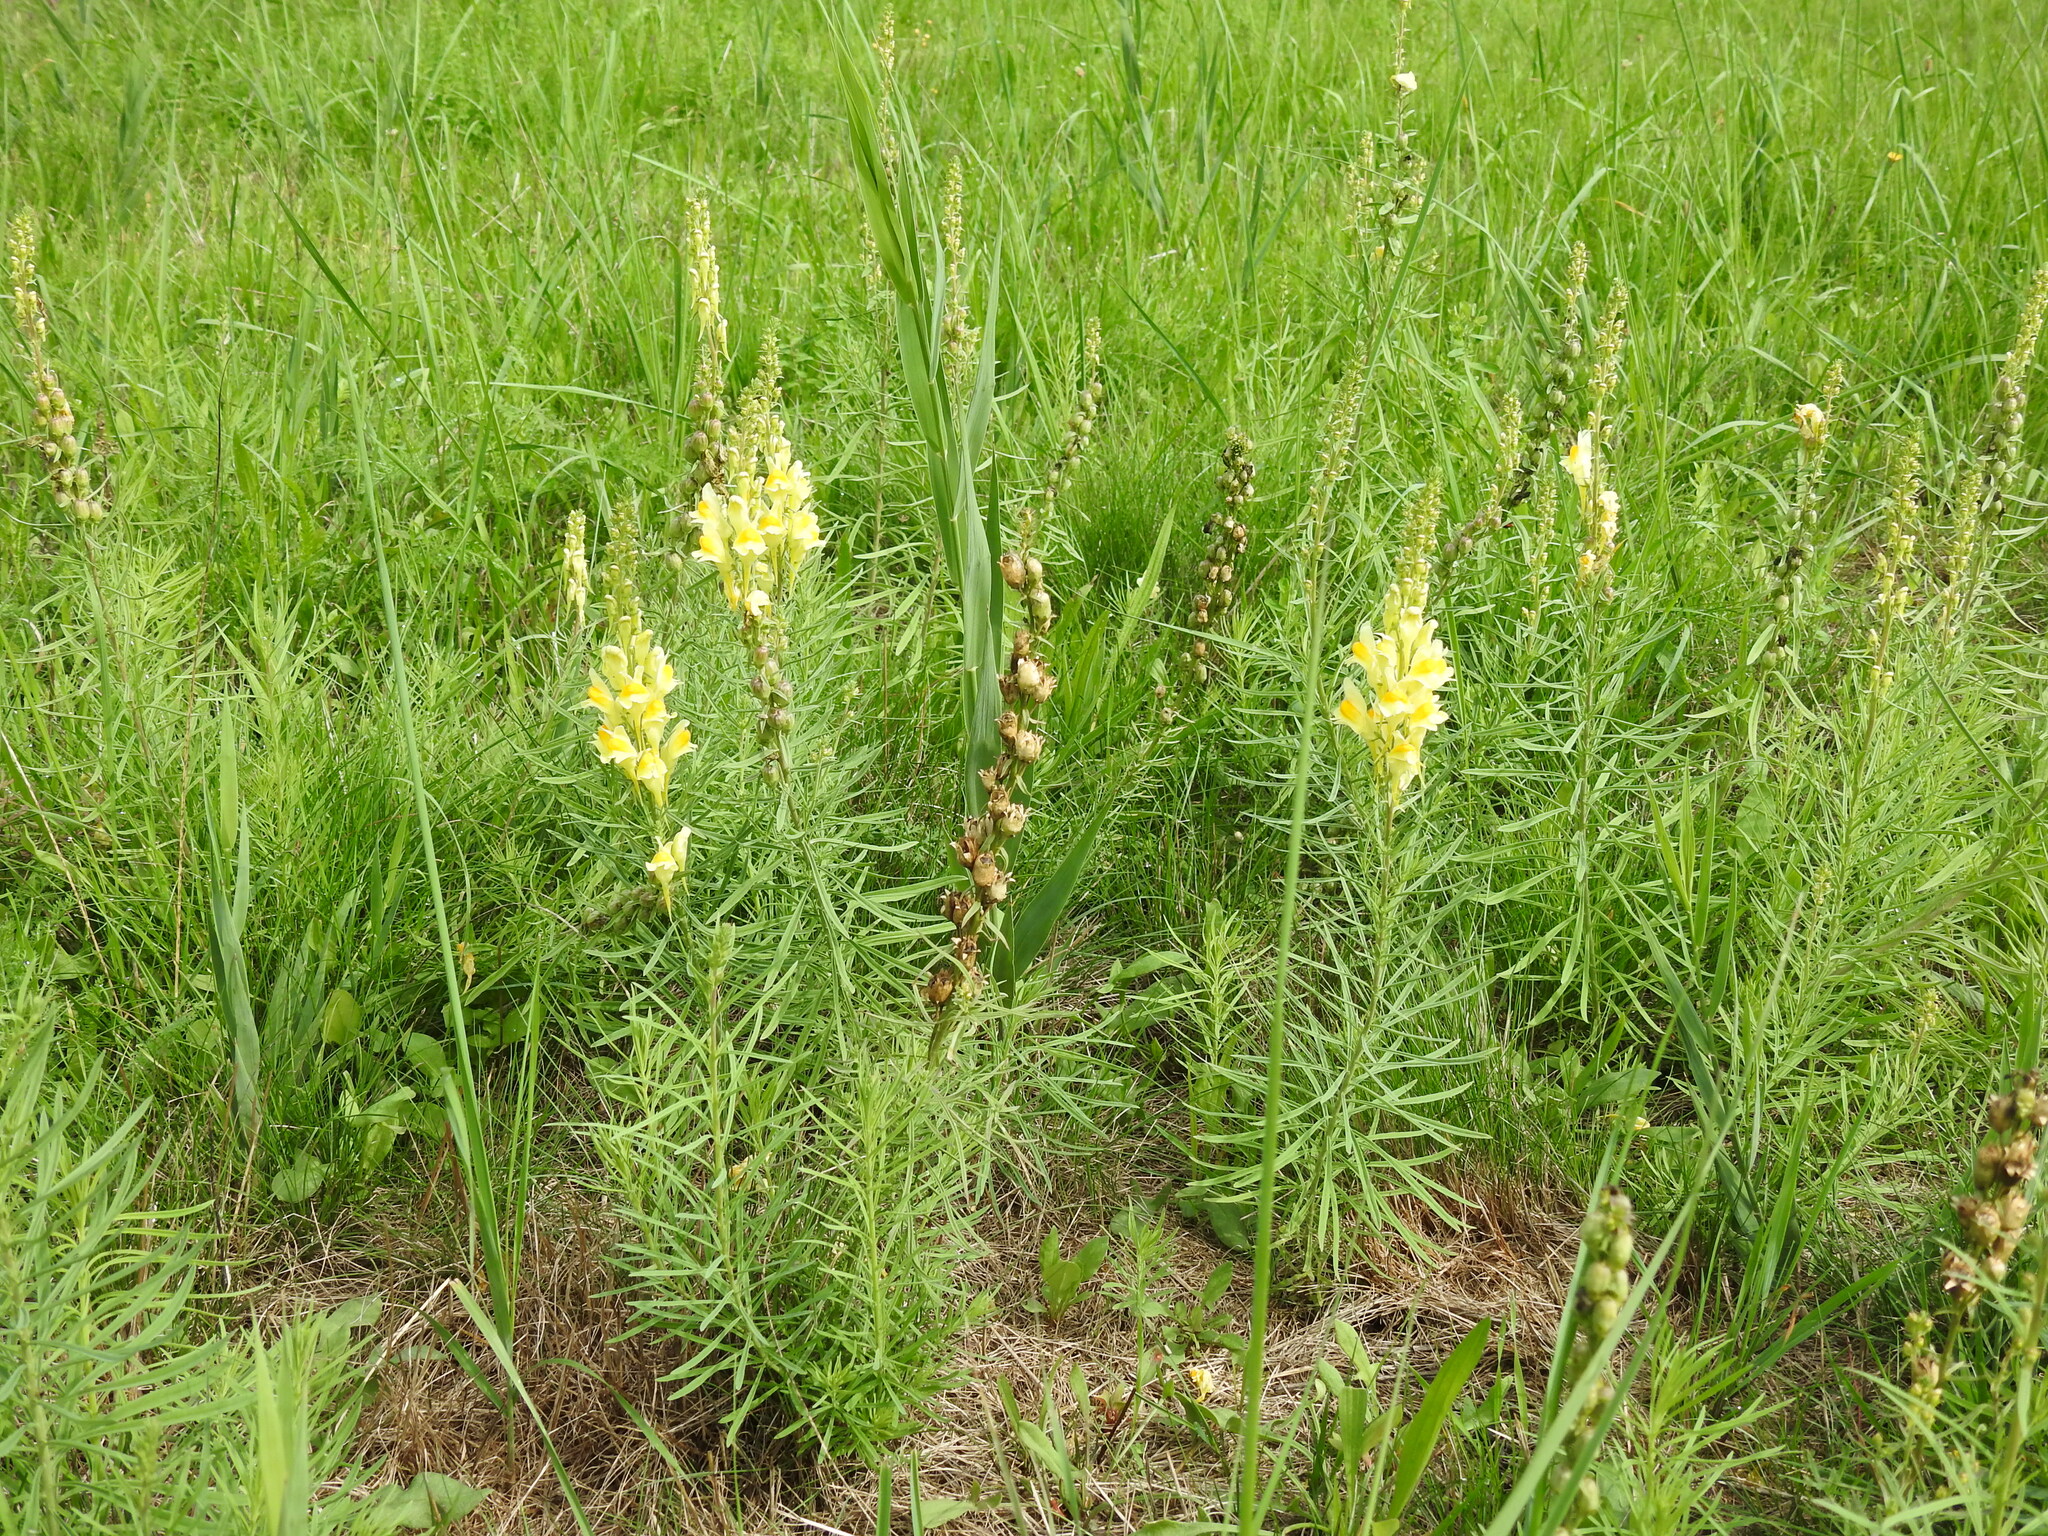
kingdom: Plantae
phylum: Tracheophyta
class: Magnoliopsida
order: Lamiales
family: Plantaginaceae
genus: Linaria
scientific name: Linaria vulgaris
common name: Butter and eggs
